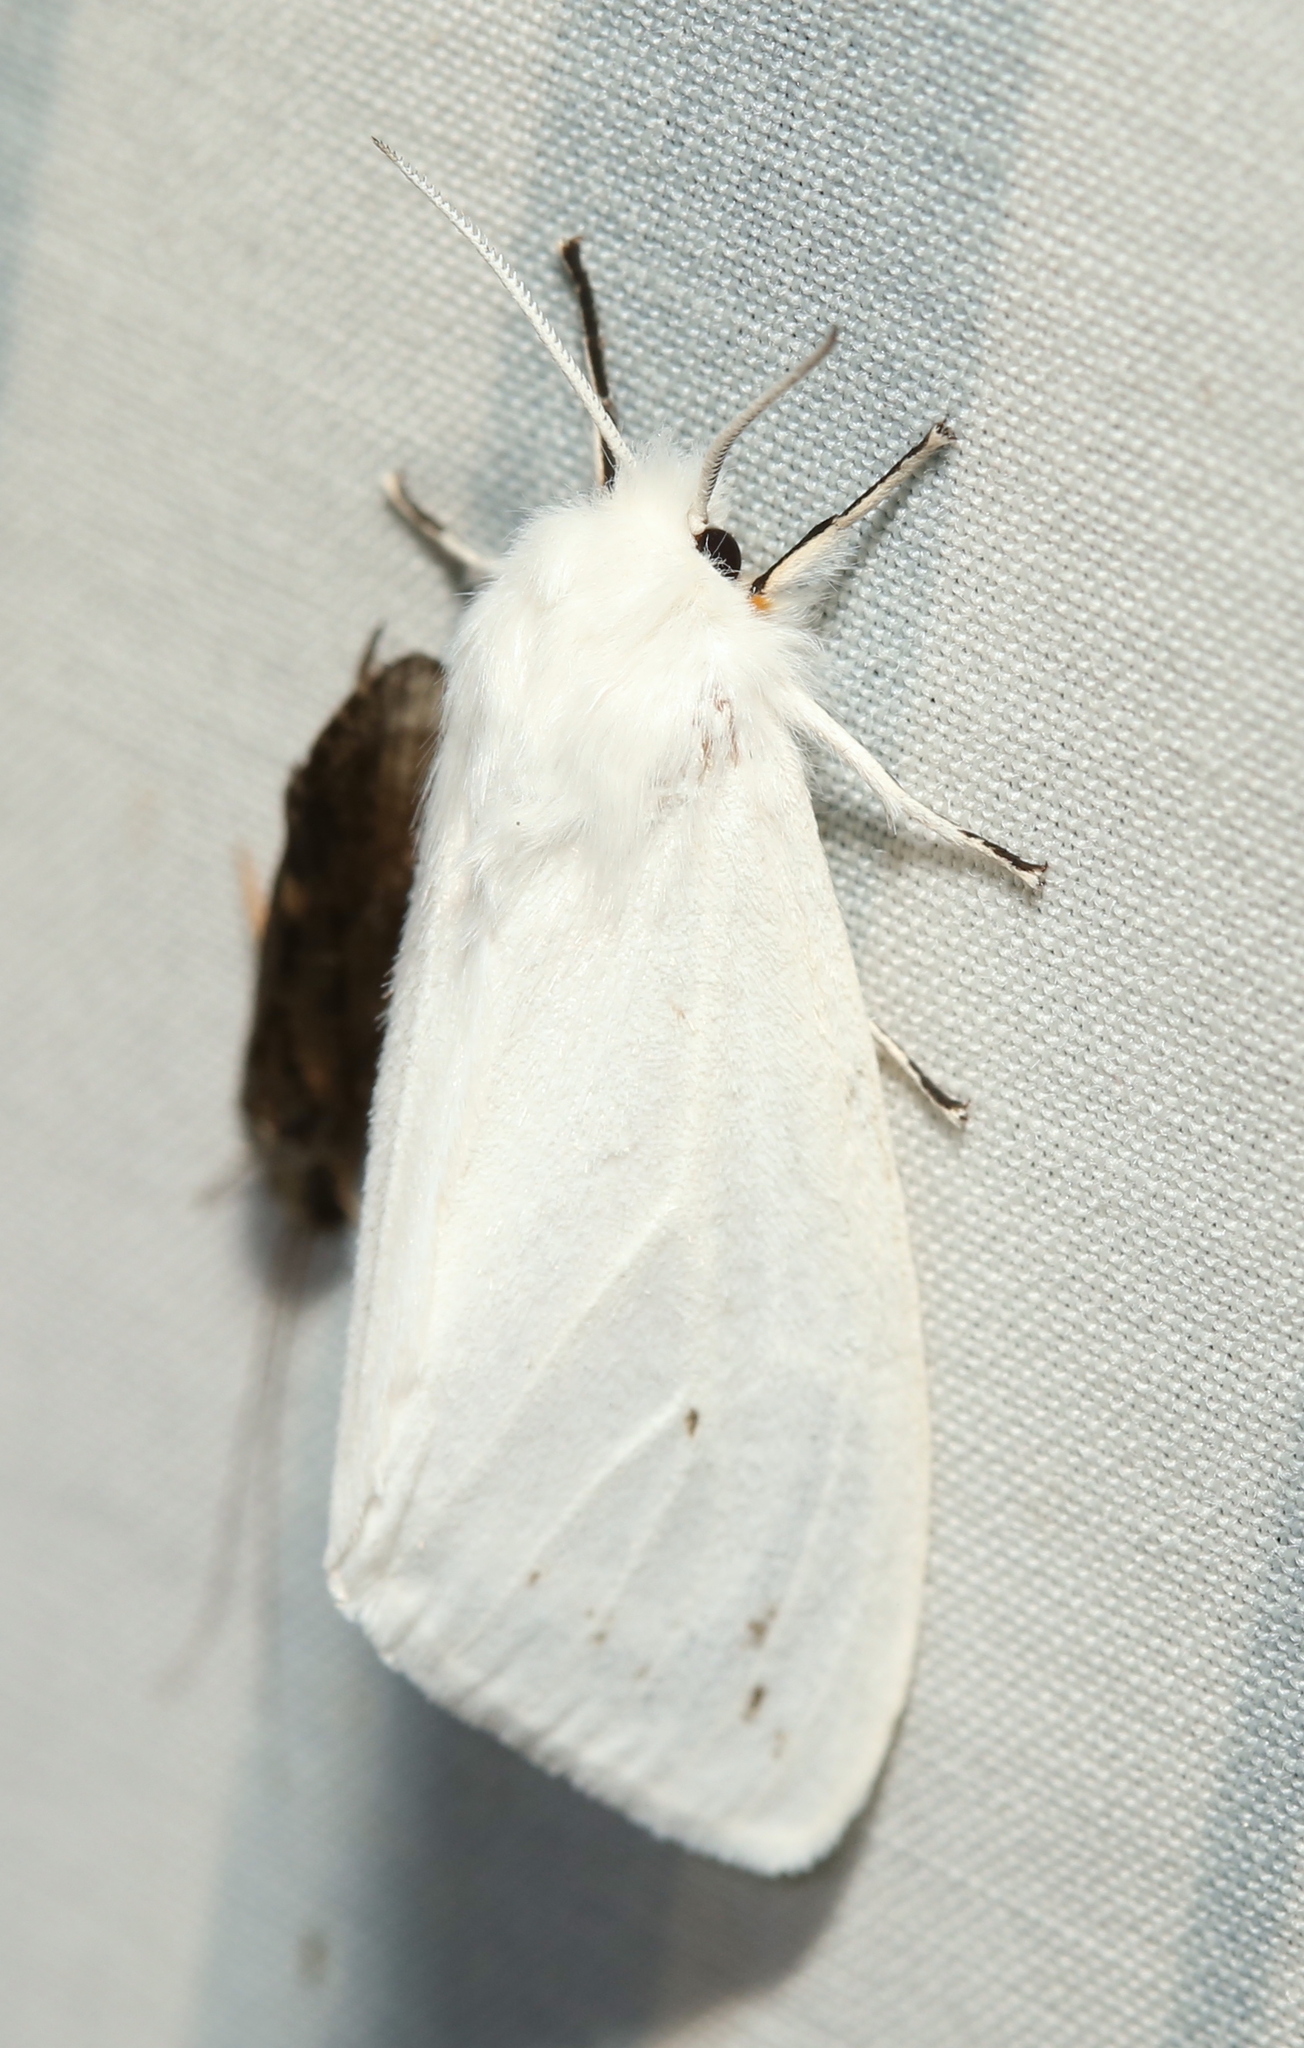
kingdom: Animalia
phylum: Arthropoda
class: Insecta
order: Lepidoptera
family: Erebidae
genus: Spilosoma
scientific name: Spilosoma congrua
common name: Agreeable tiger moth
